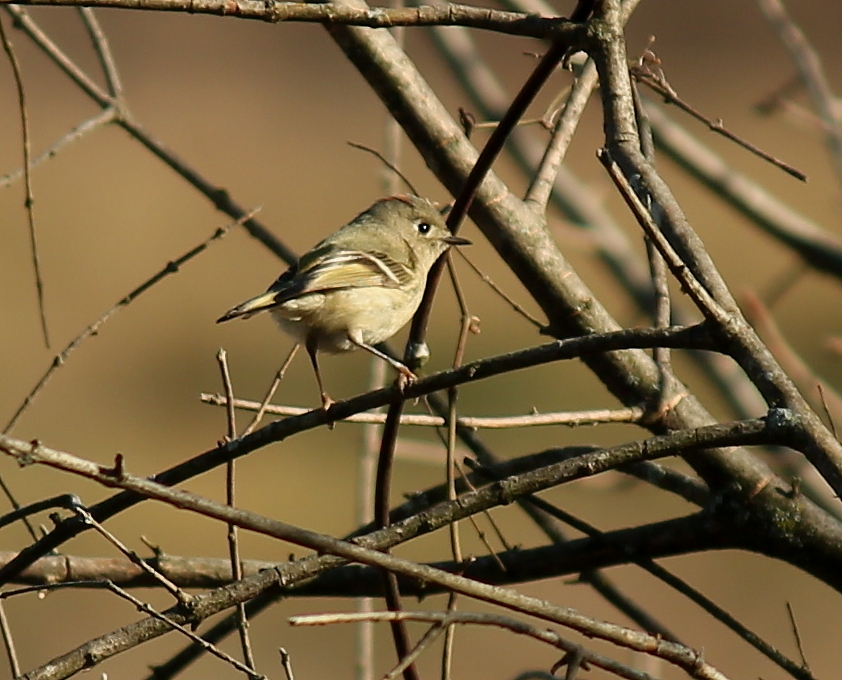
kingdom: Animalia
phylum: Chordata
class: Aves
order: Passeriformes
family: Regulidae
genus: Regulus
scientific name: Regulus calendula
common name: Ruby-crowned kinglet
